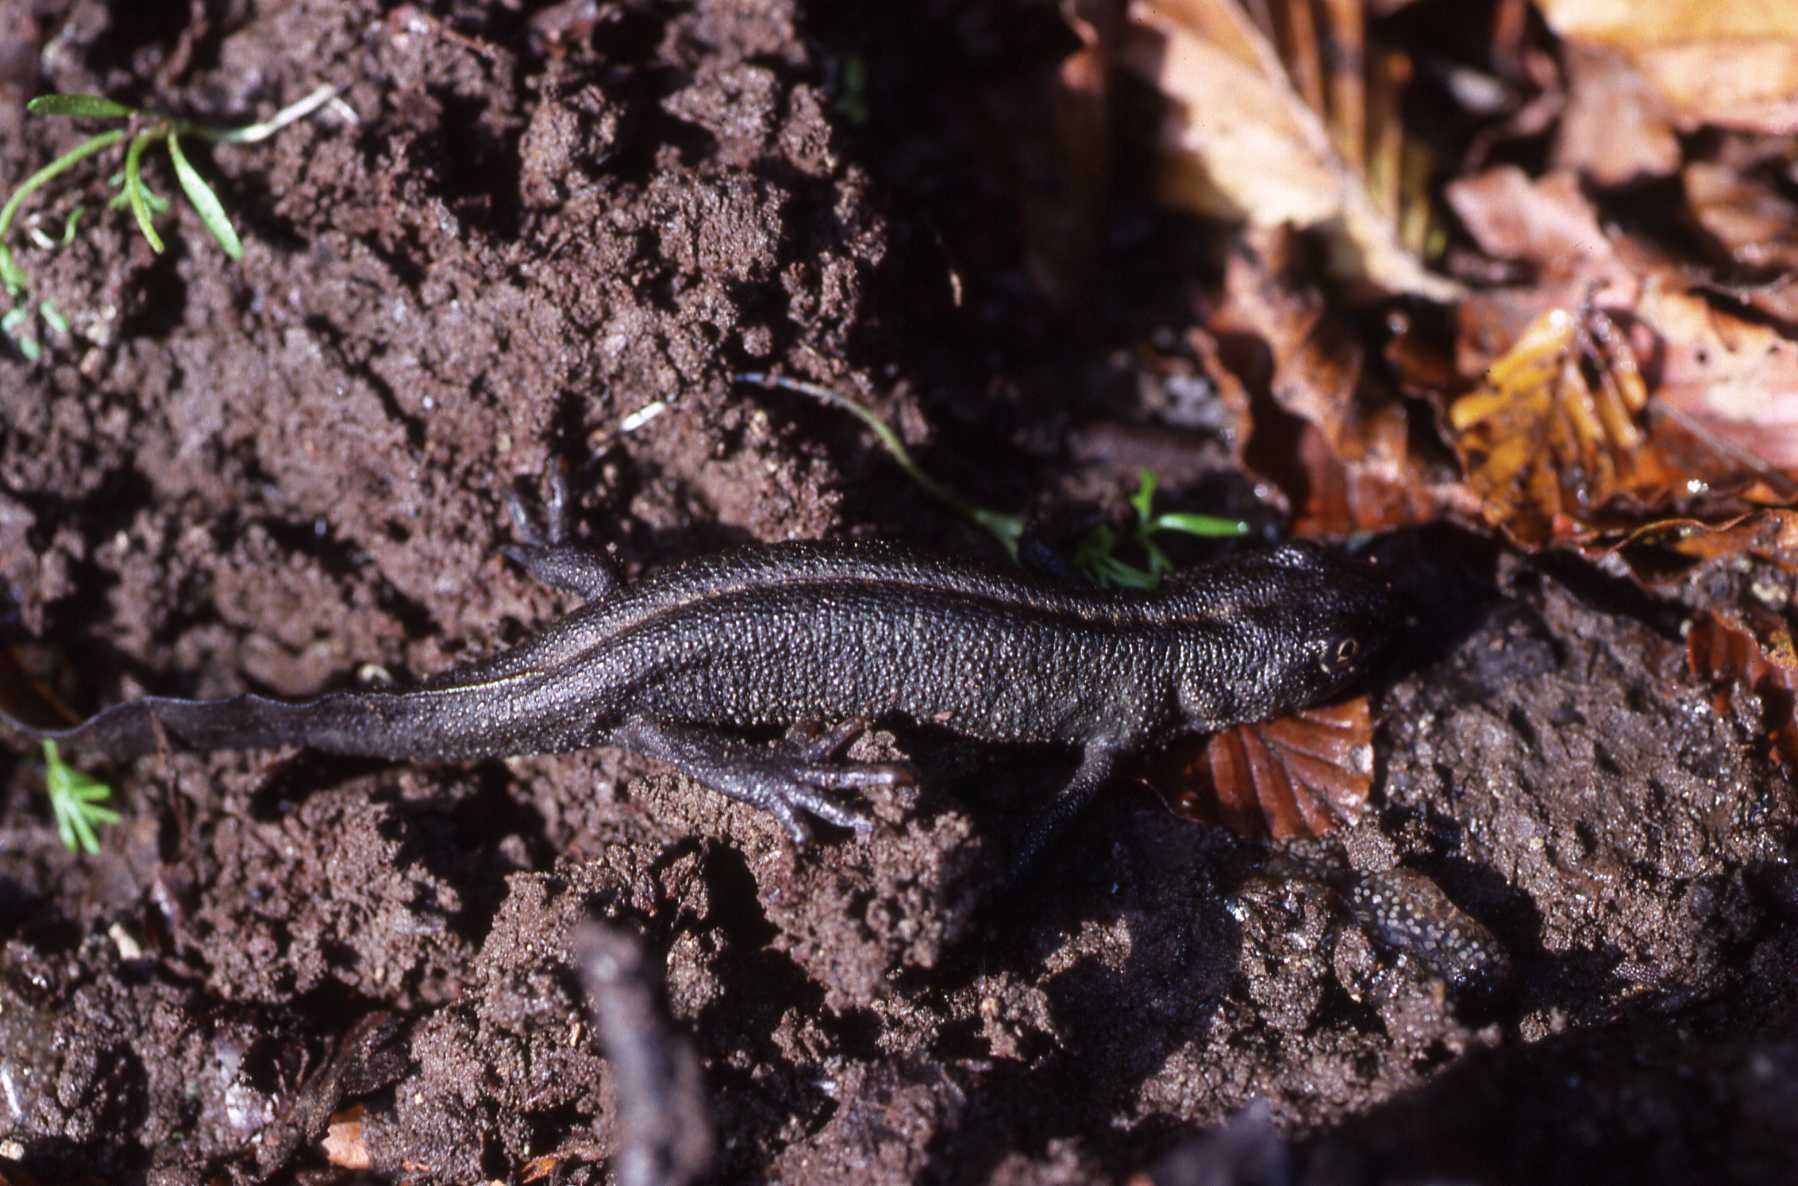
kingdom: Animalia
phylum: Chordata
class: Amphibia
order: Caudata
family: Salamandridae
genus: Triturus
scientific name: Triturus carnifex
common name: Italian crested newt
